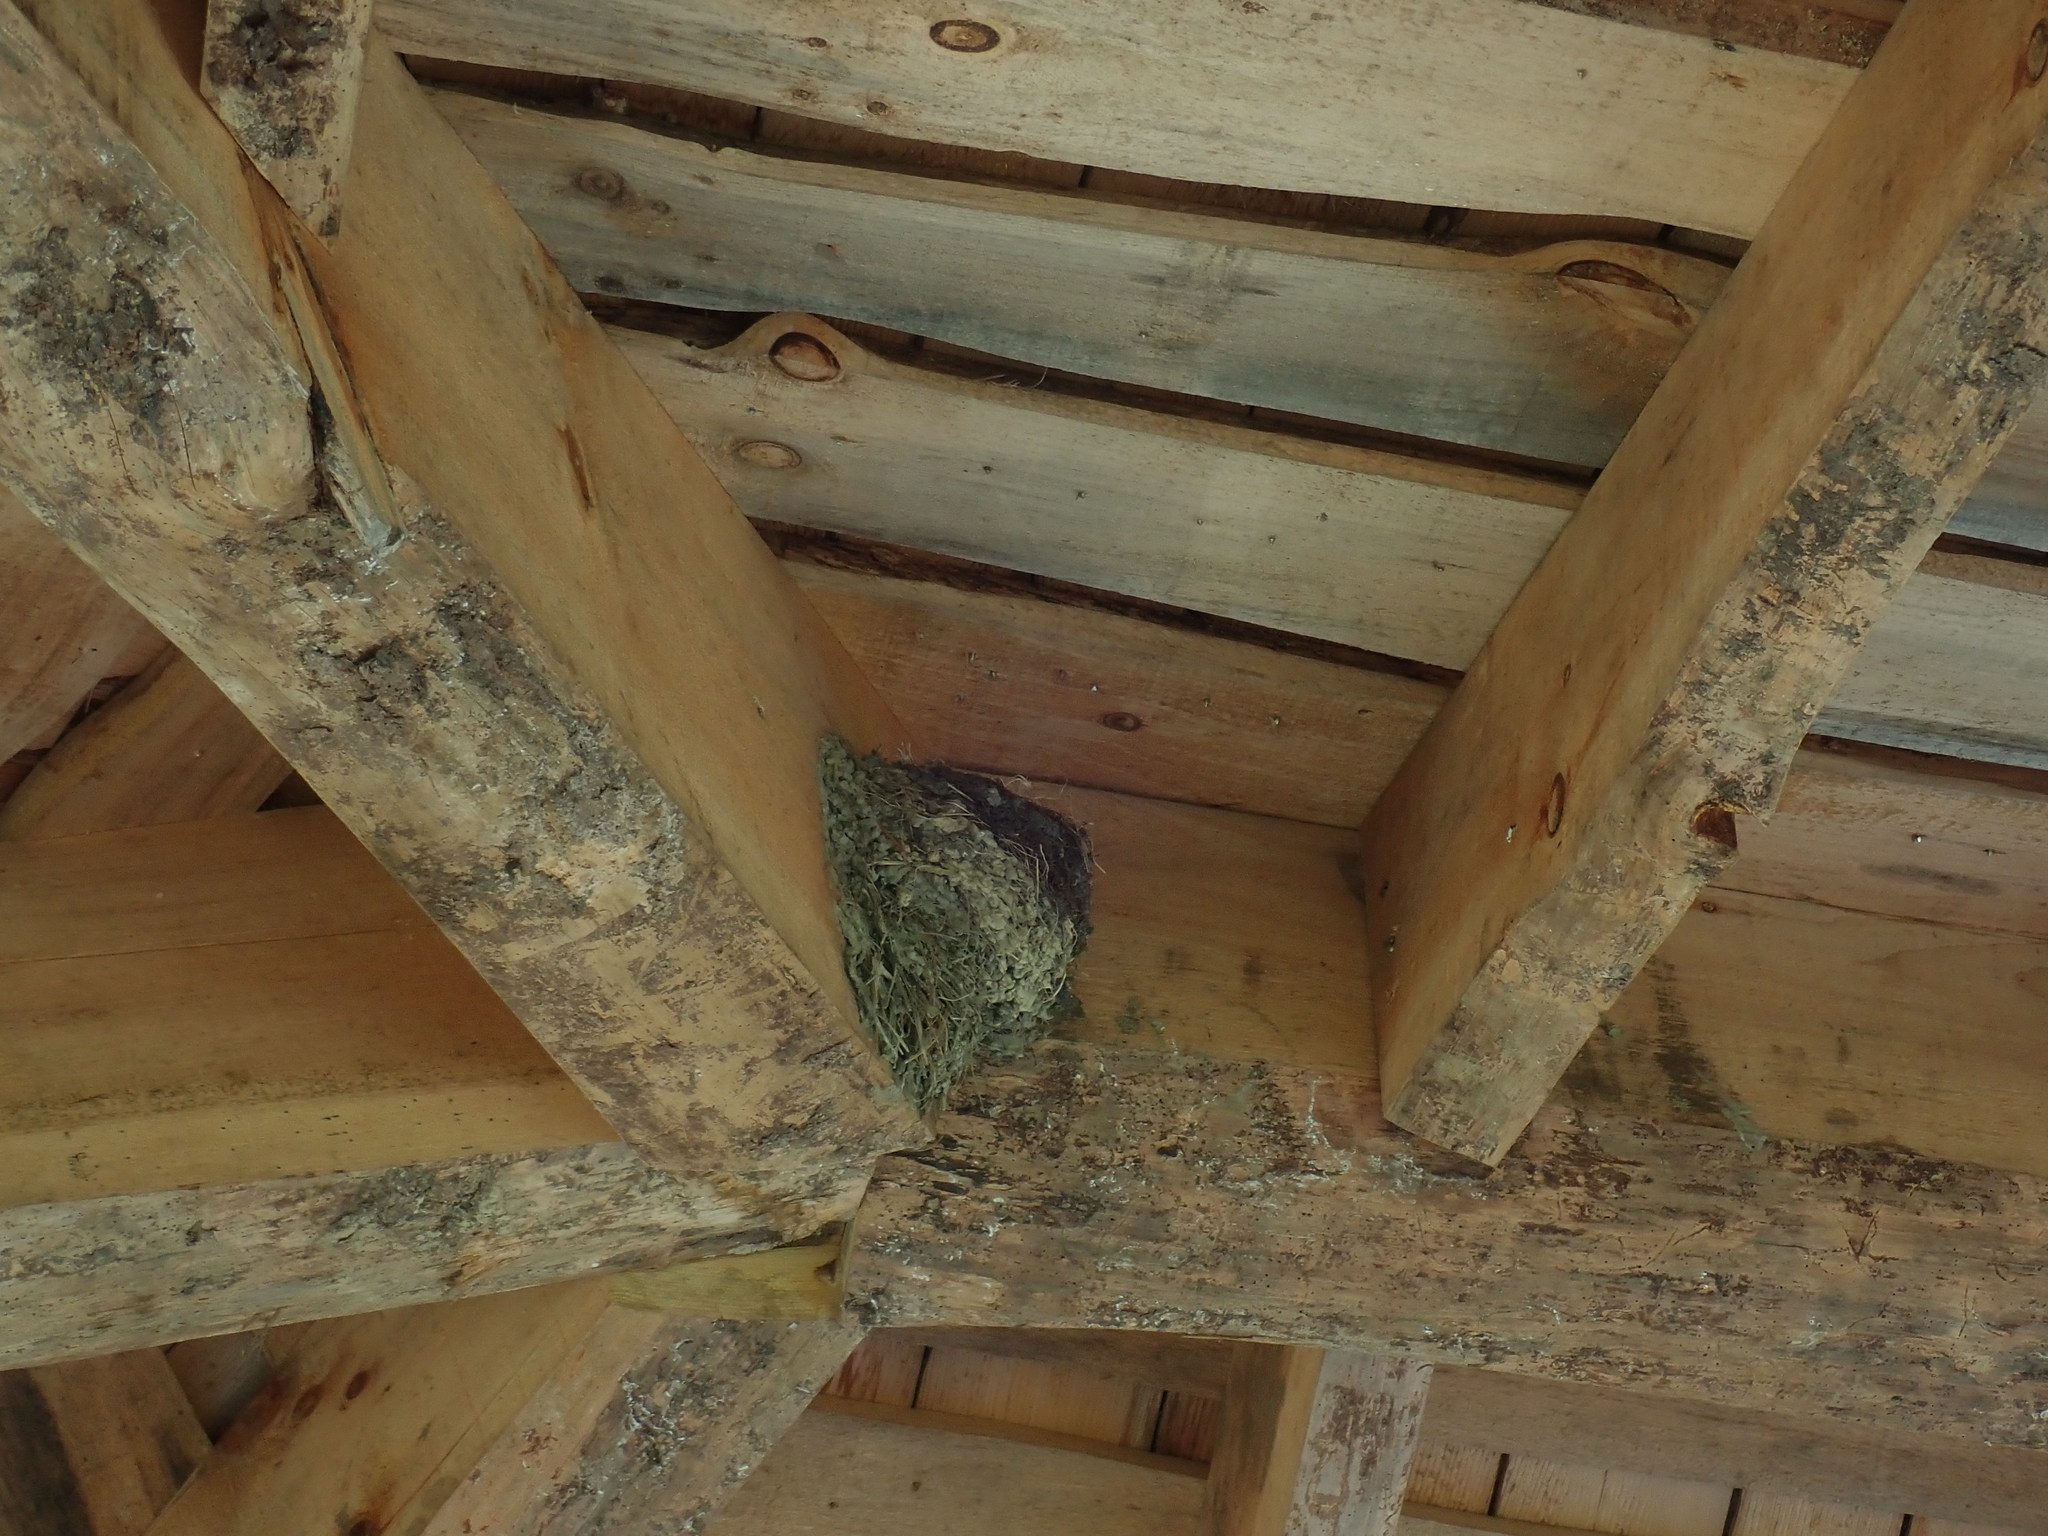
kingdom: Animalia
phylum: Chordata
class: Aves
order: Passeriformes
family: Hirundinidae
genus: Hirundo
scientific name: Hirundo rustica
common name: Barn swallow
